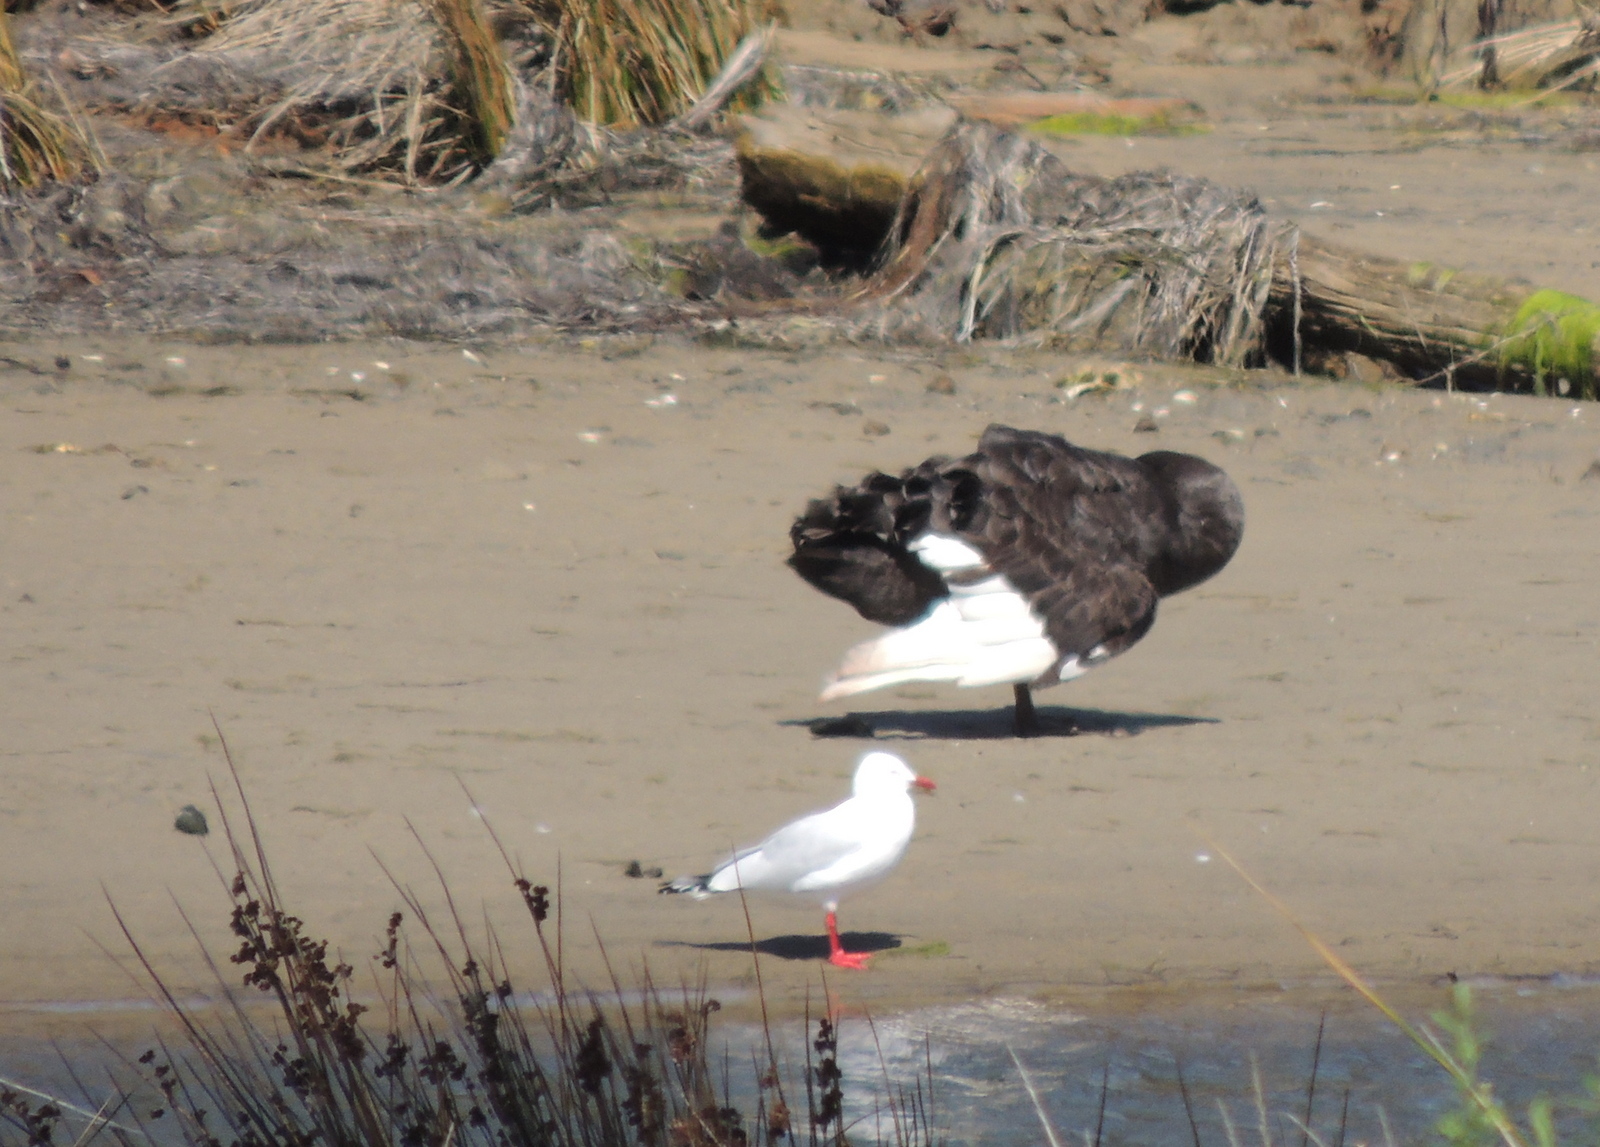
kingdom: Animalia
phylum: Chordata
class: Aves
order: Anseriformes
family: Anatidae
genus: Cygnus
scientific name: Cygnus atratus
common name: Black swan
